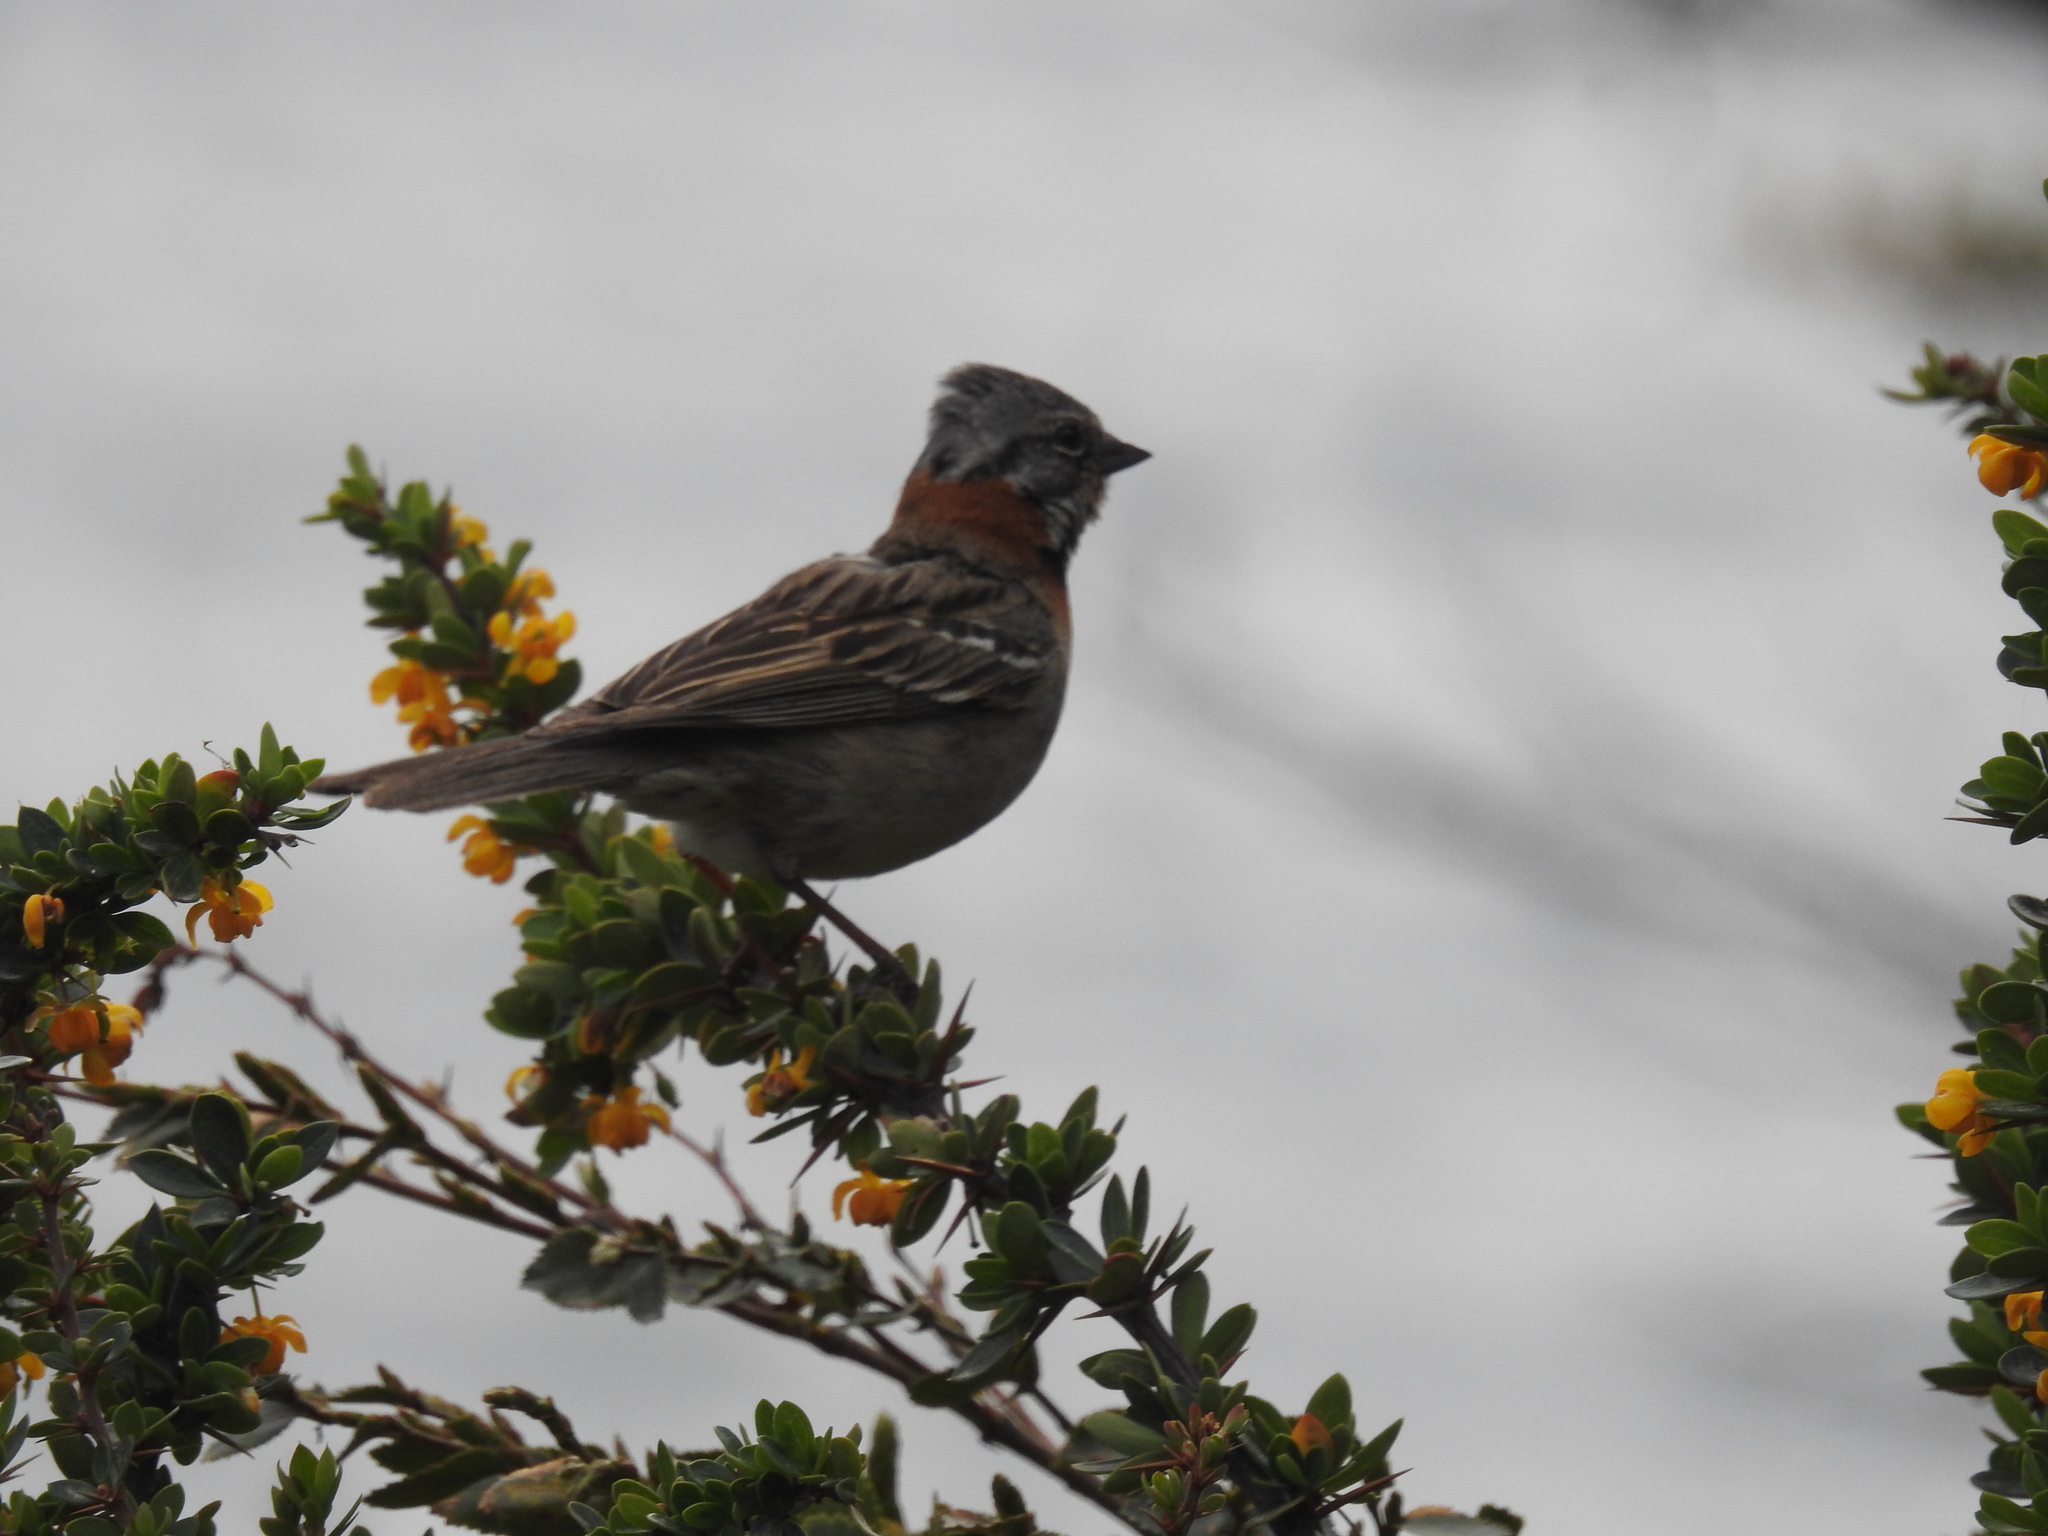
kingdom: Animalia
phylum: Chordata
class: Aves
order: Passeriformes
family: Passerellidae
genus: Zonotrichia
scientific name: Zonotrichia capensis
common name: Rufous-collared sparrow
